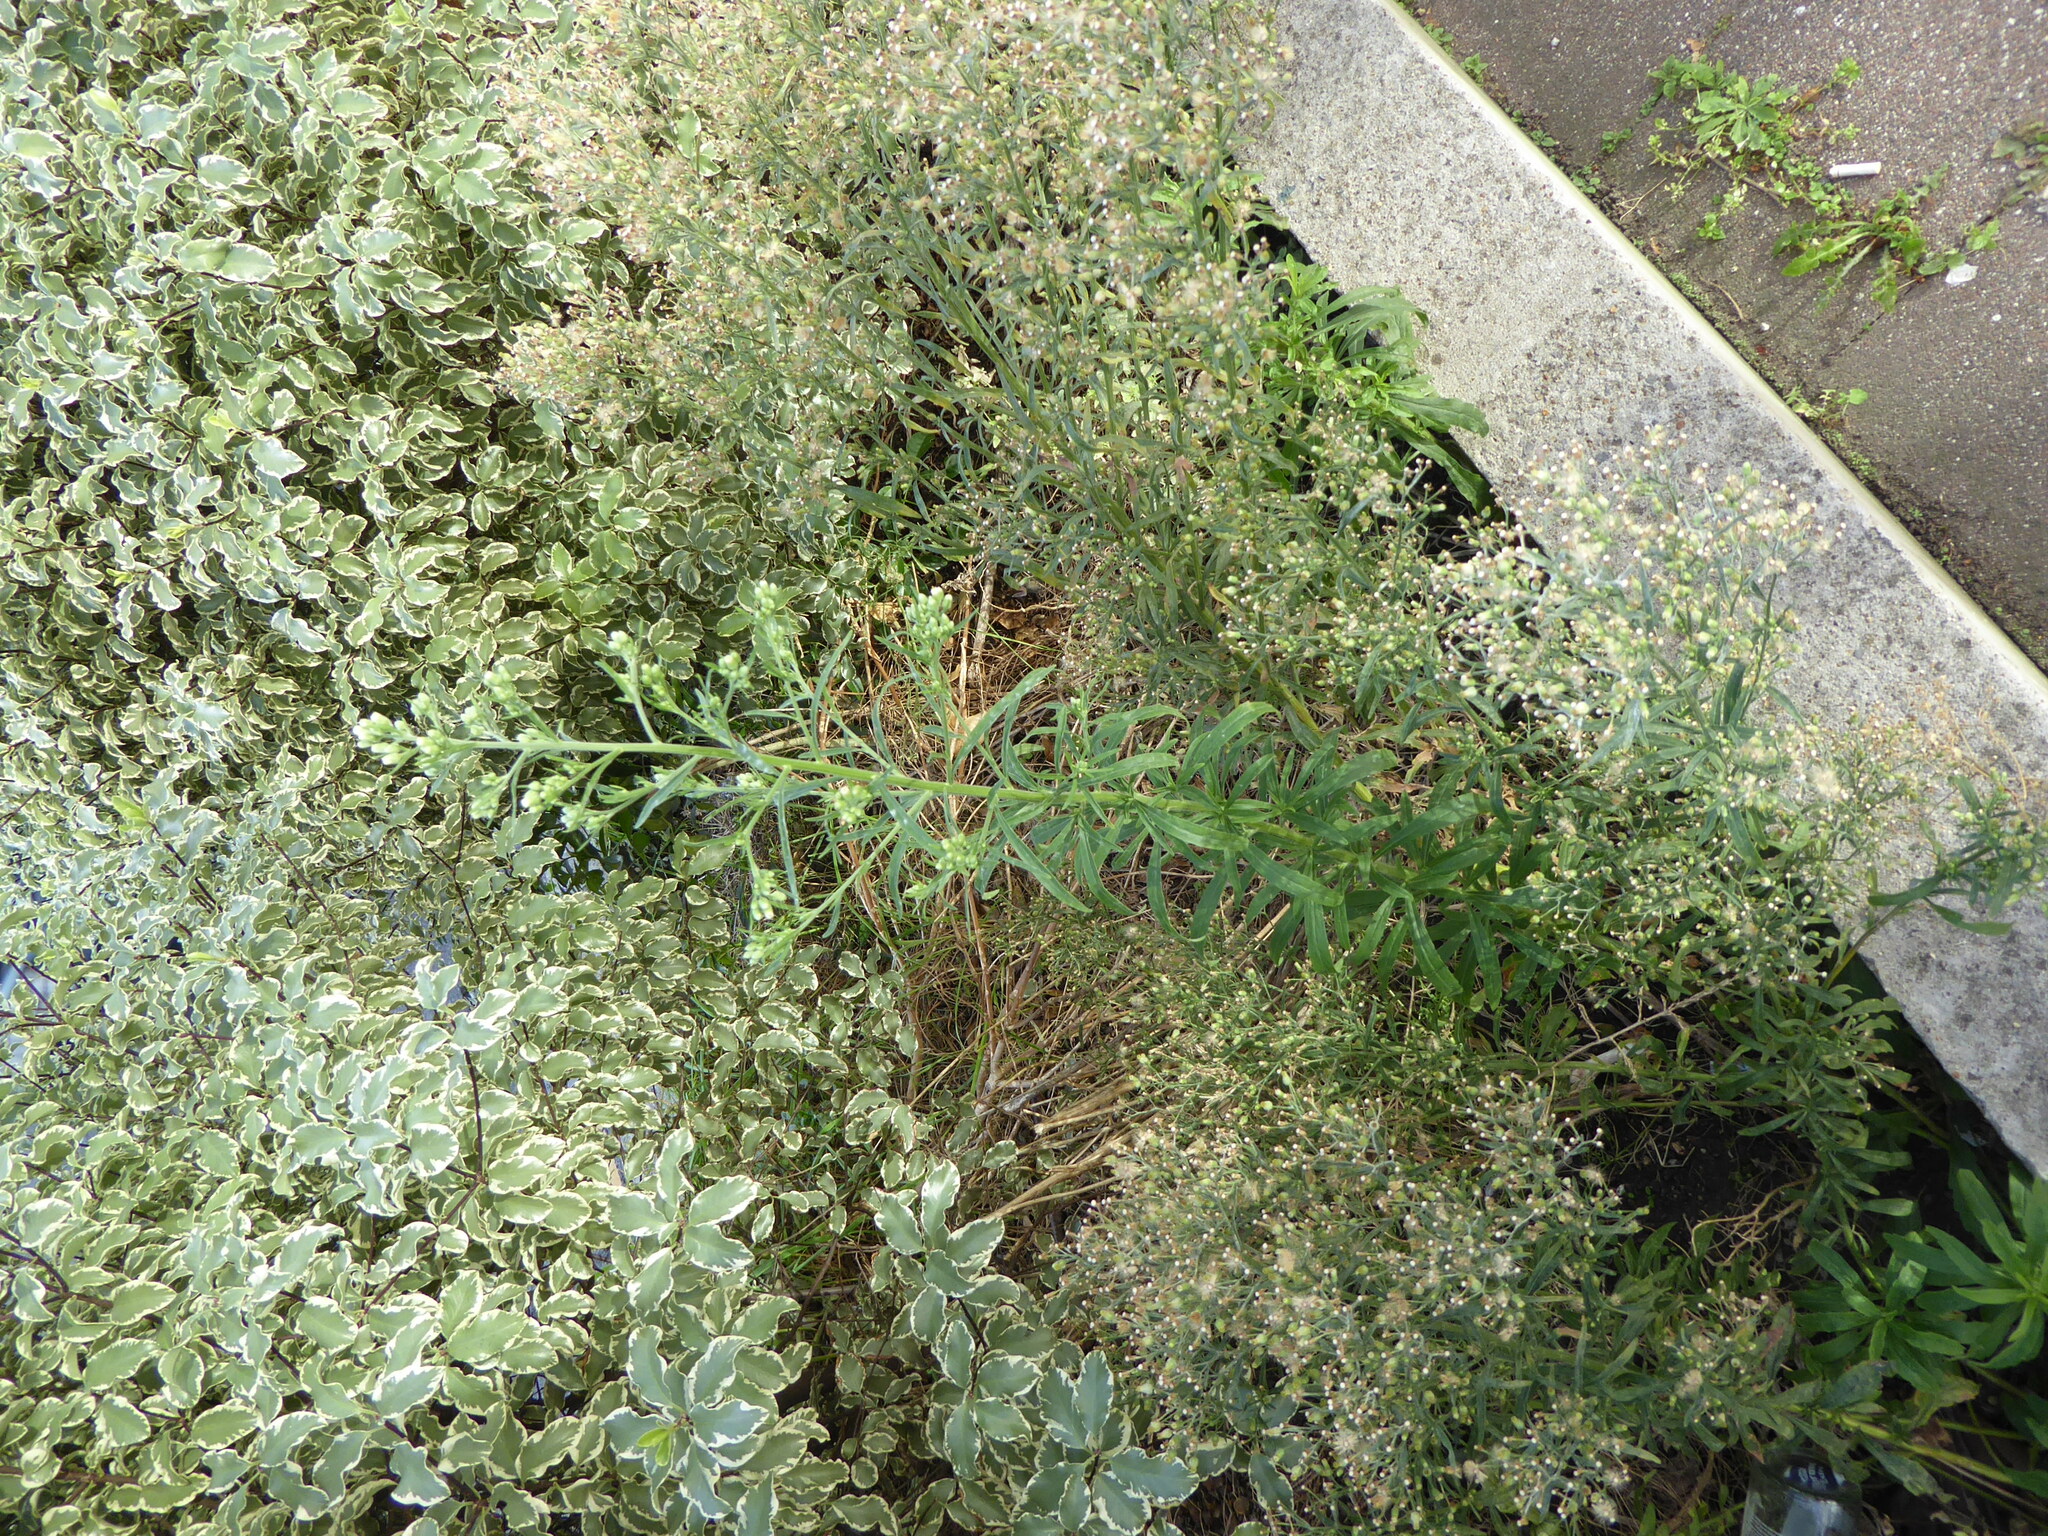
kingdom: Plantae
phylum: Tracheophyta
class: Magnoliopsida
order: Asterales
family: Asteraceae
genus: Erigeron
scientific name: Erigeron sumatrensis
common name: Daisy
